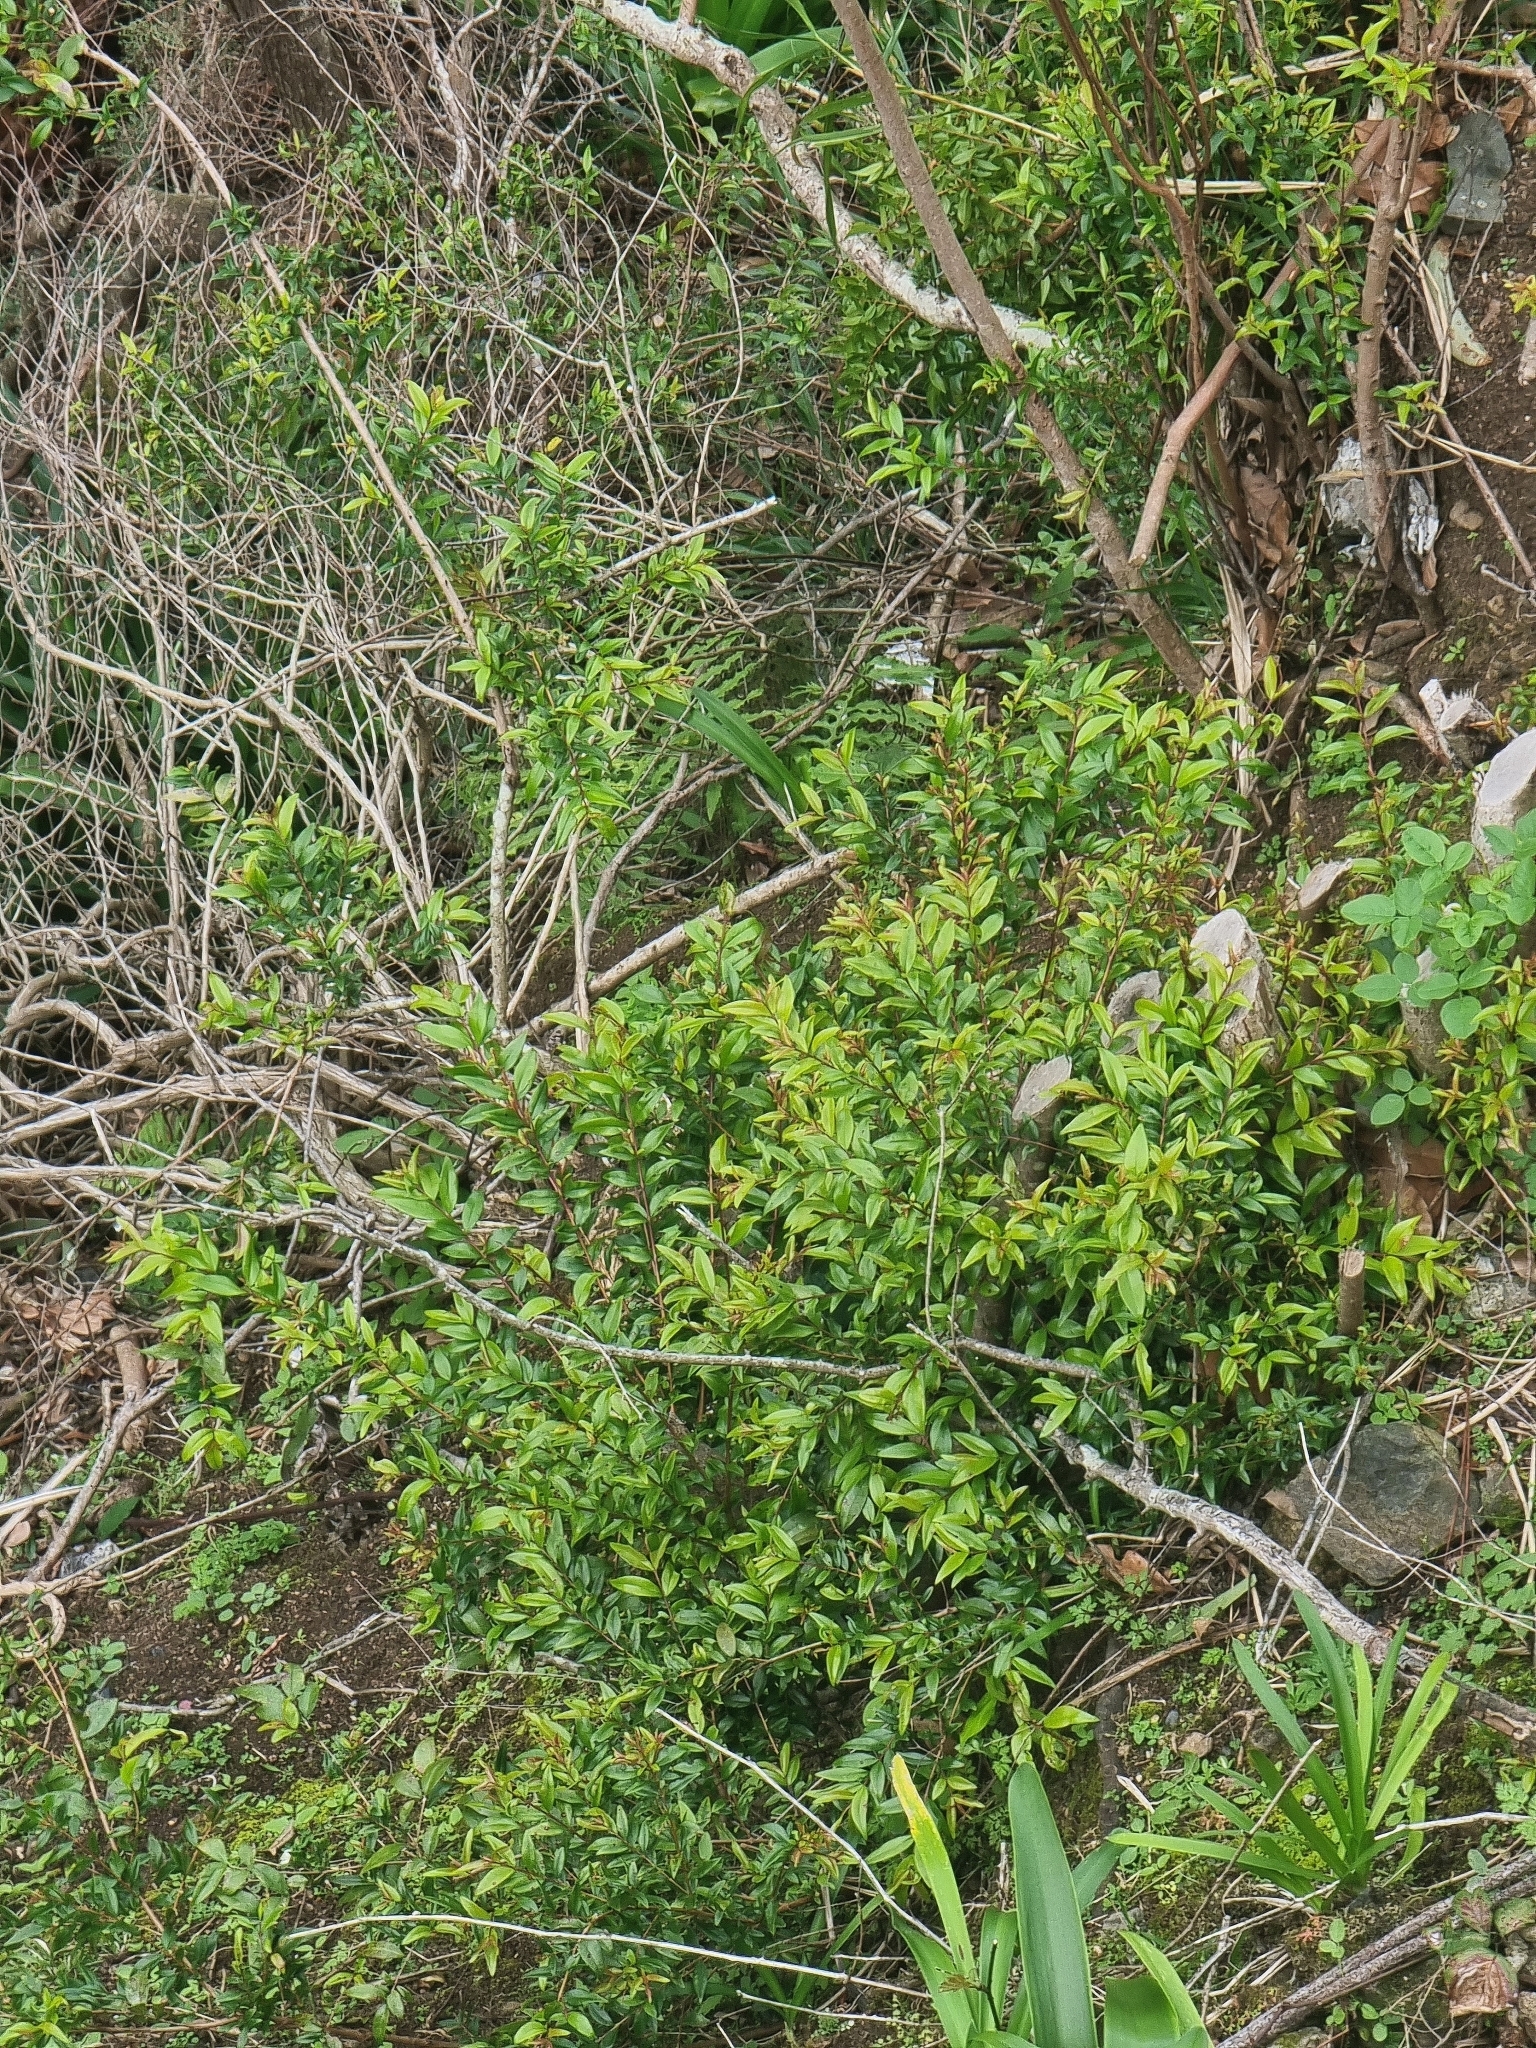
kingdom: Plantae
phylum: Tracheophyta
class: Magnoliopsida
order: Myrtales
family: Myrtaceae
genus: Myrtus
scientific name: Myrtus communis
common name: Myrtle
